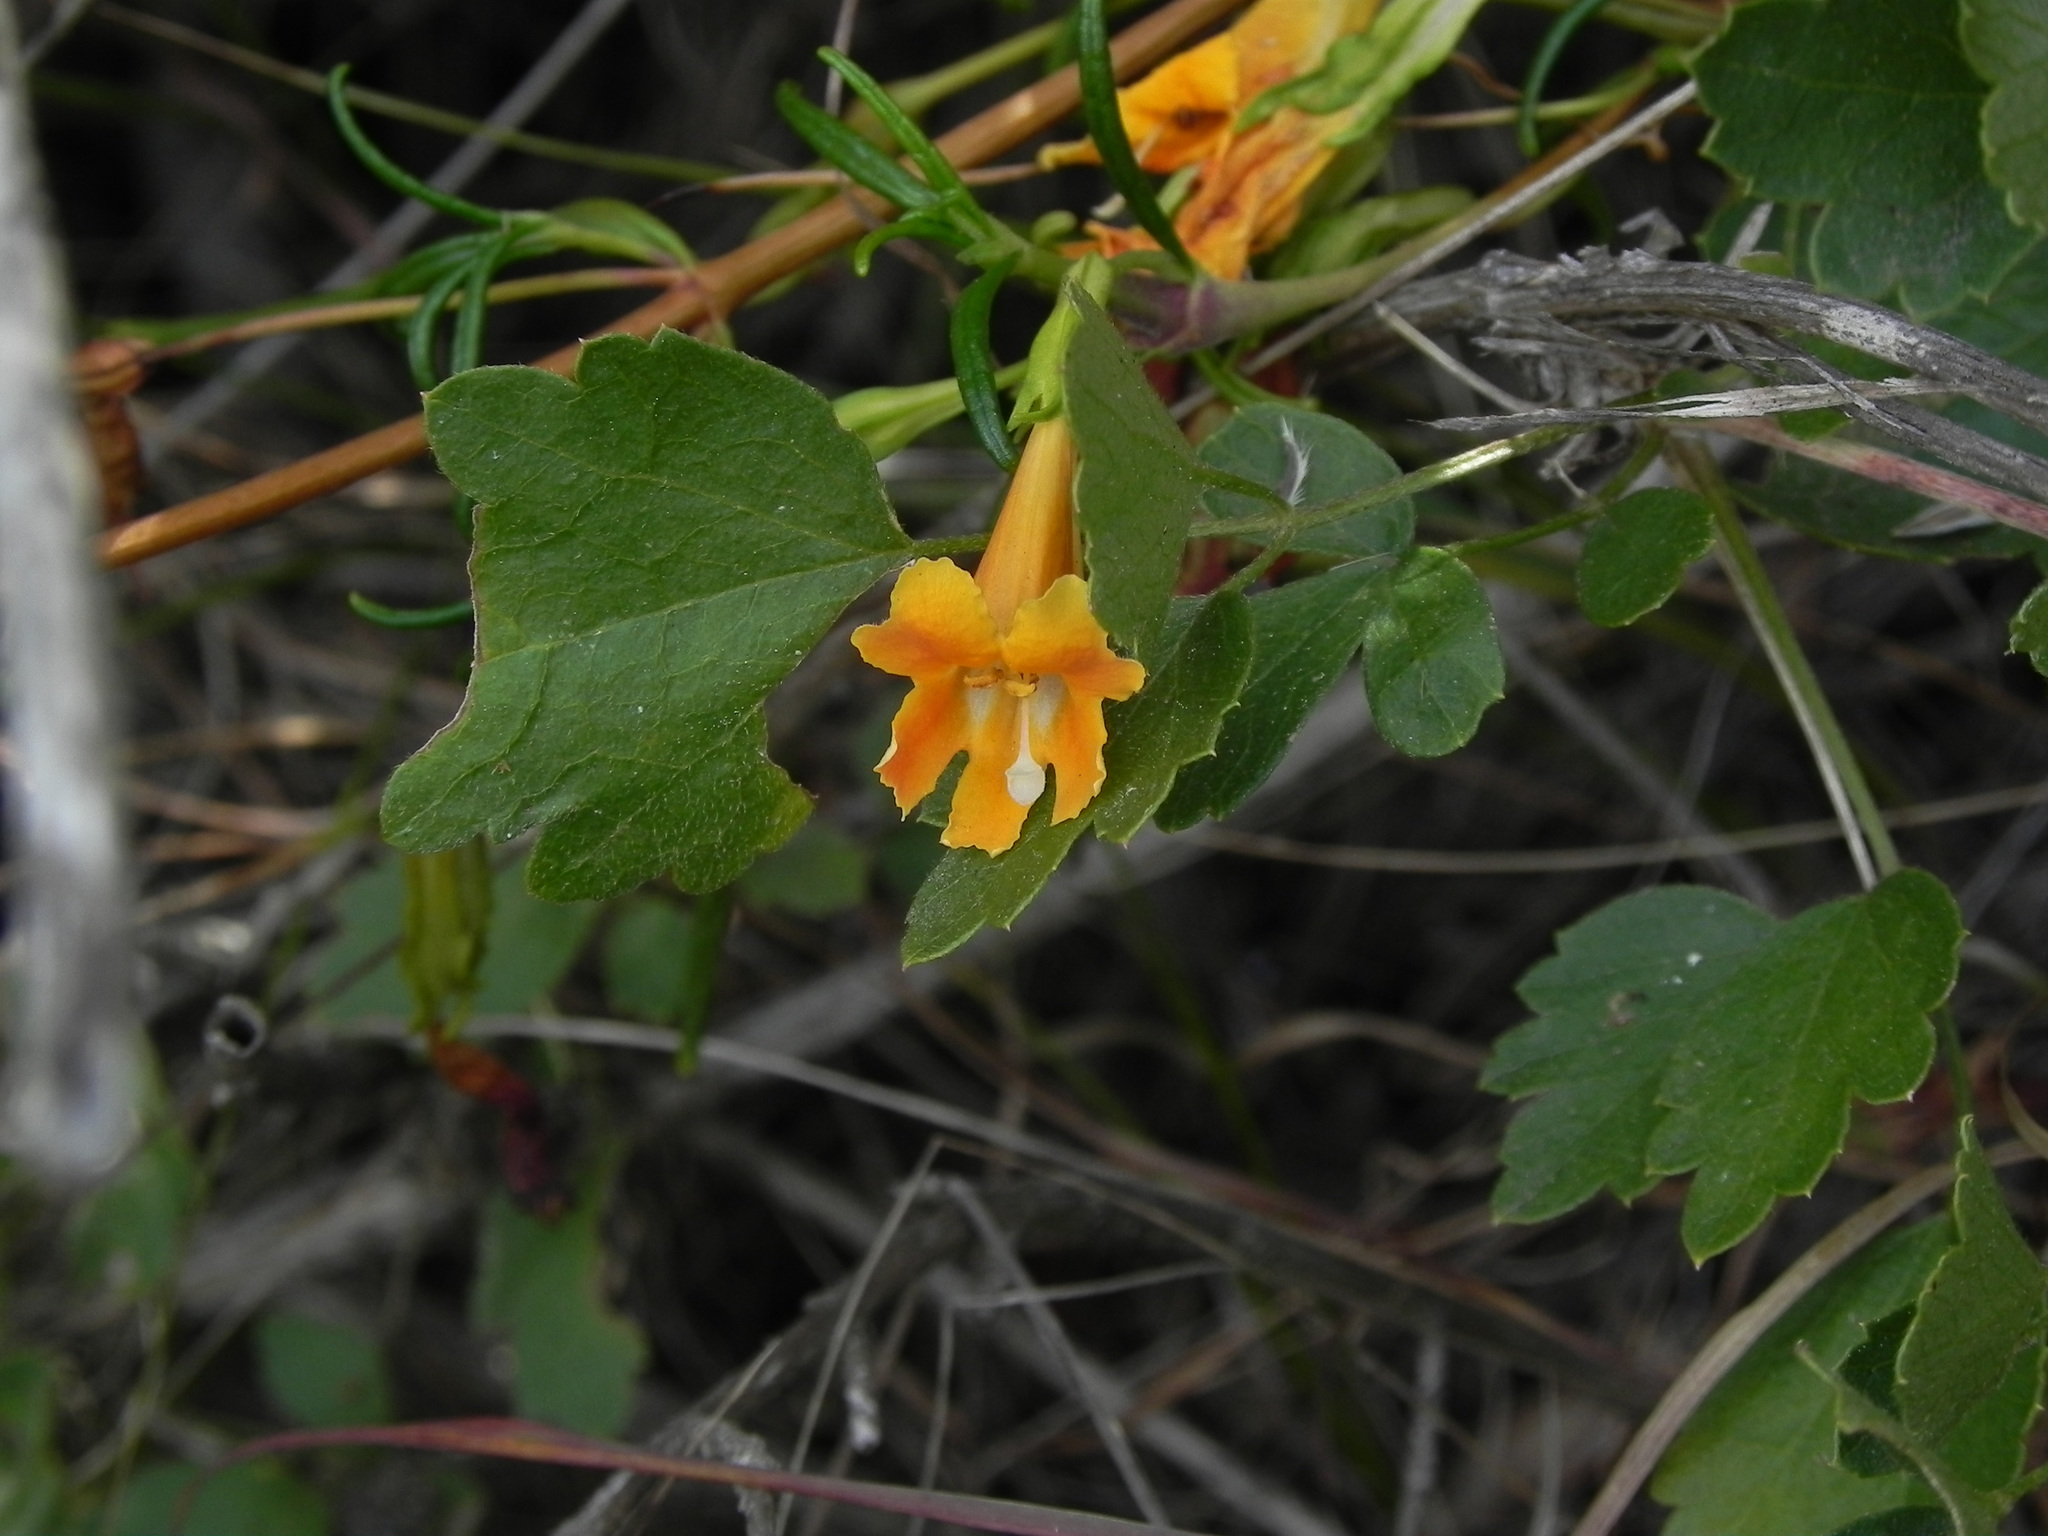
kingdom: Plantae
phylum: Tracheophyta
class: Magnoliopsida
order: Lamiales
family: Phrymaceae
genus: Diplacus
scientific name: Diplacus australis
